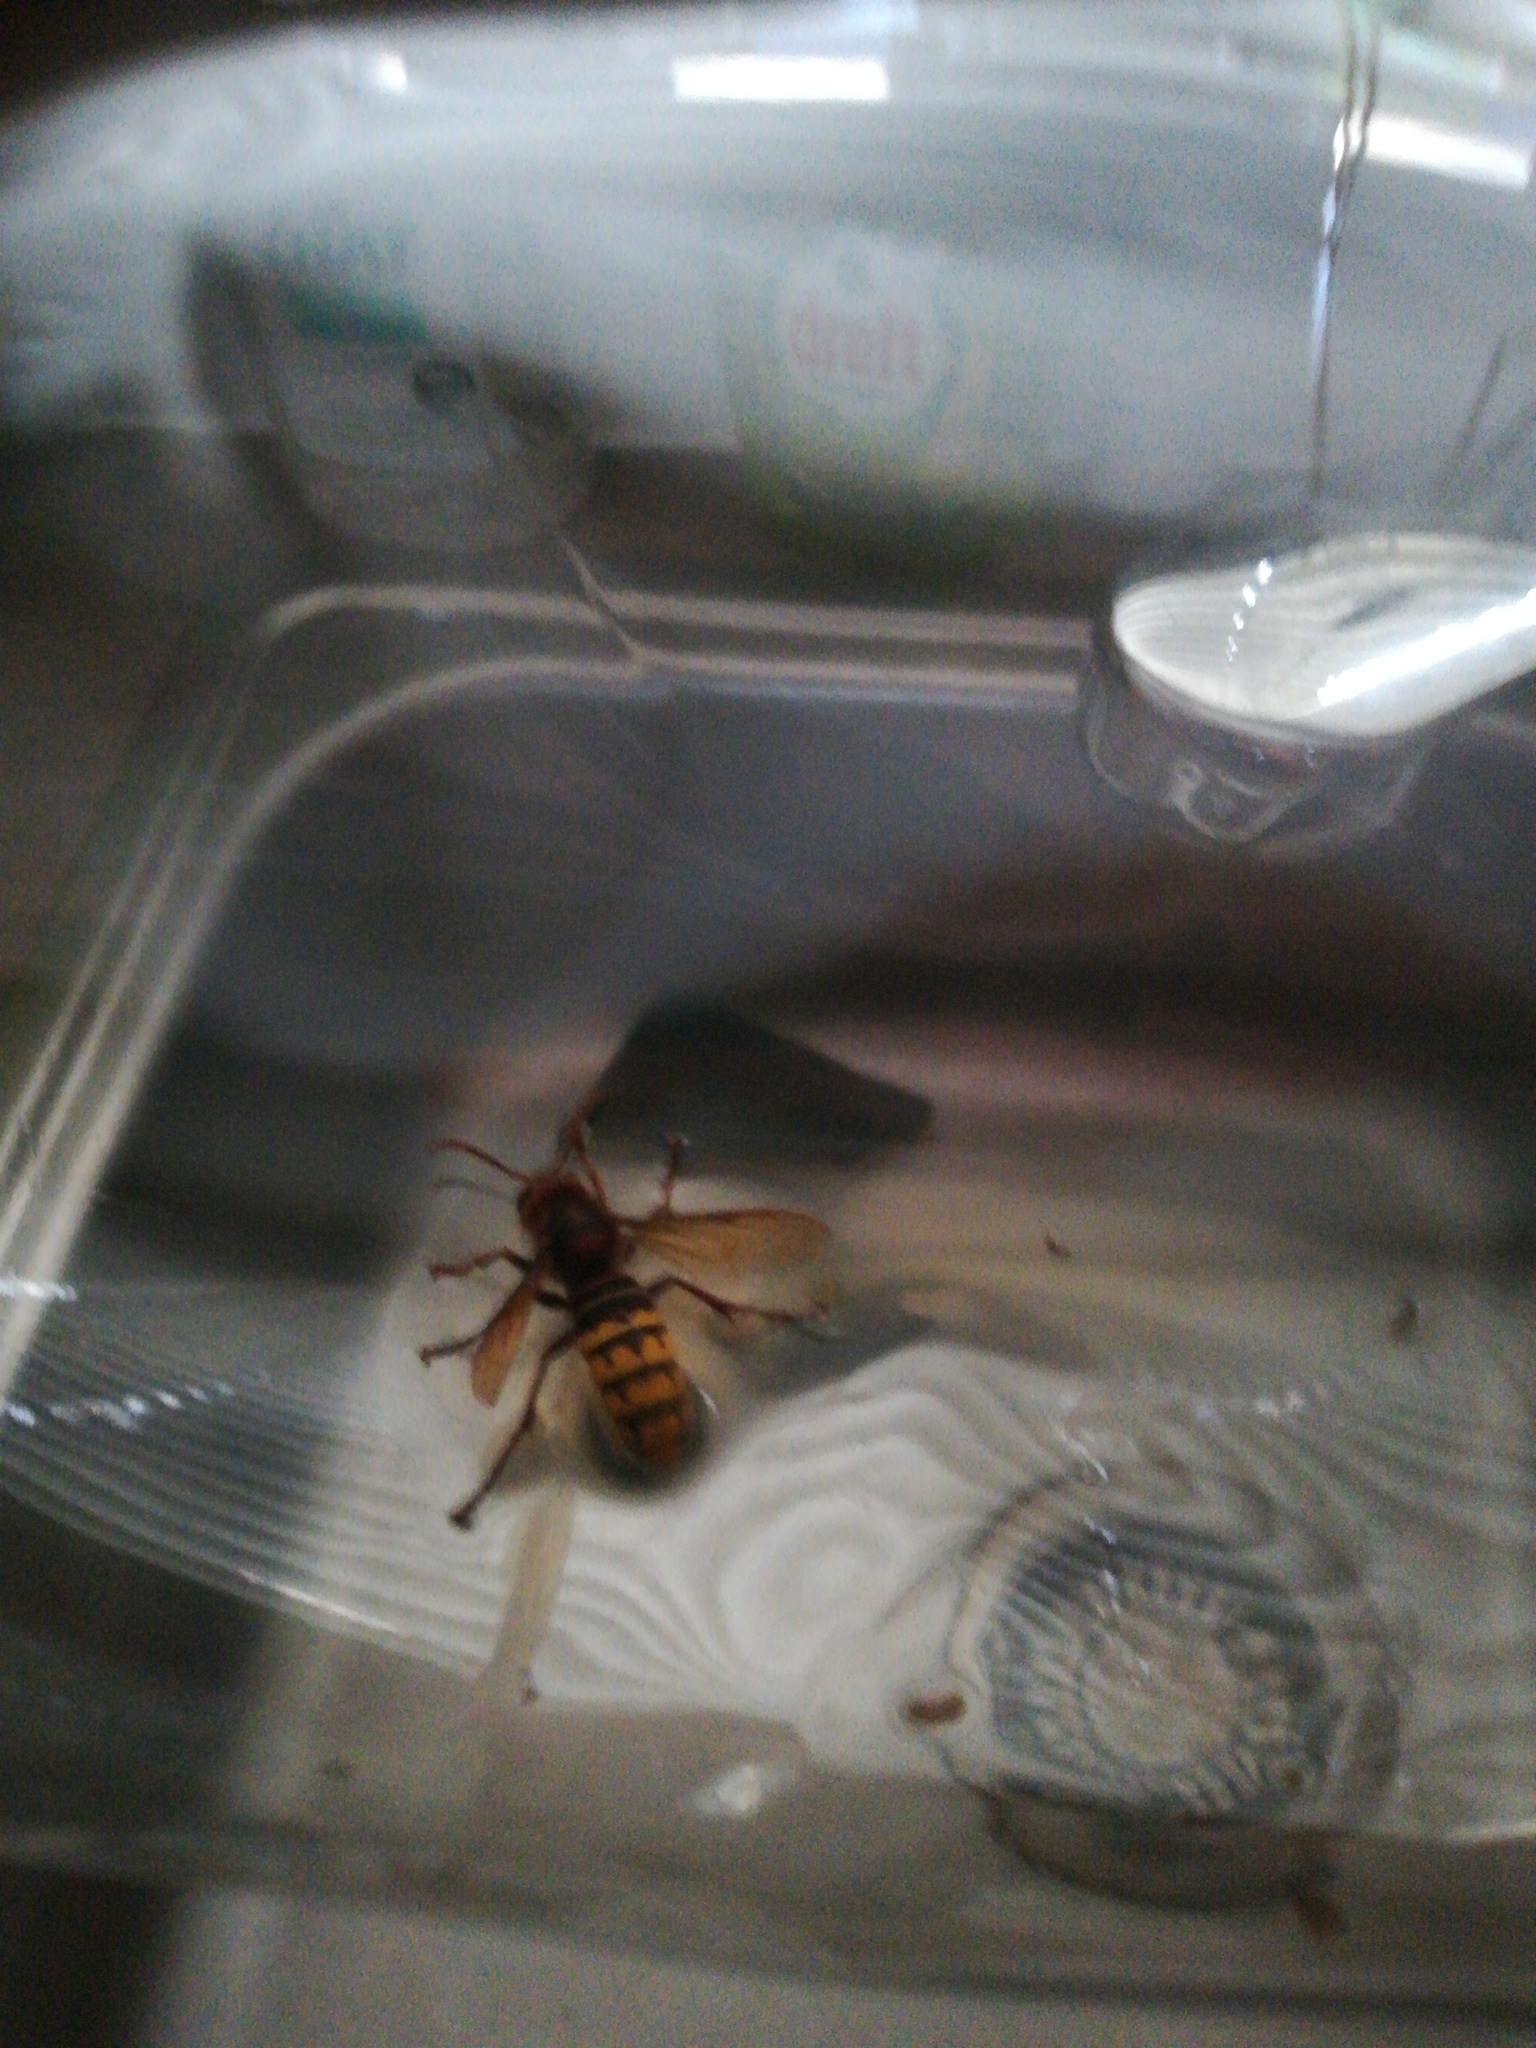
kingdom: Animalia
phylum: Arthropoda
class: Insecta
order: Hymenoptera
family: Vespidae
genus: Vespa
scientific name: Vespa crabro
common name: Hornet
